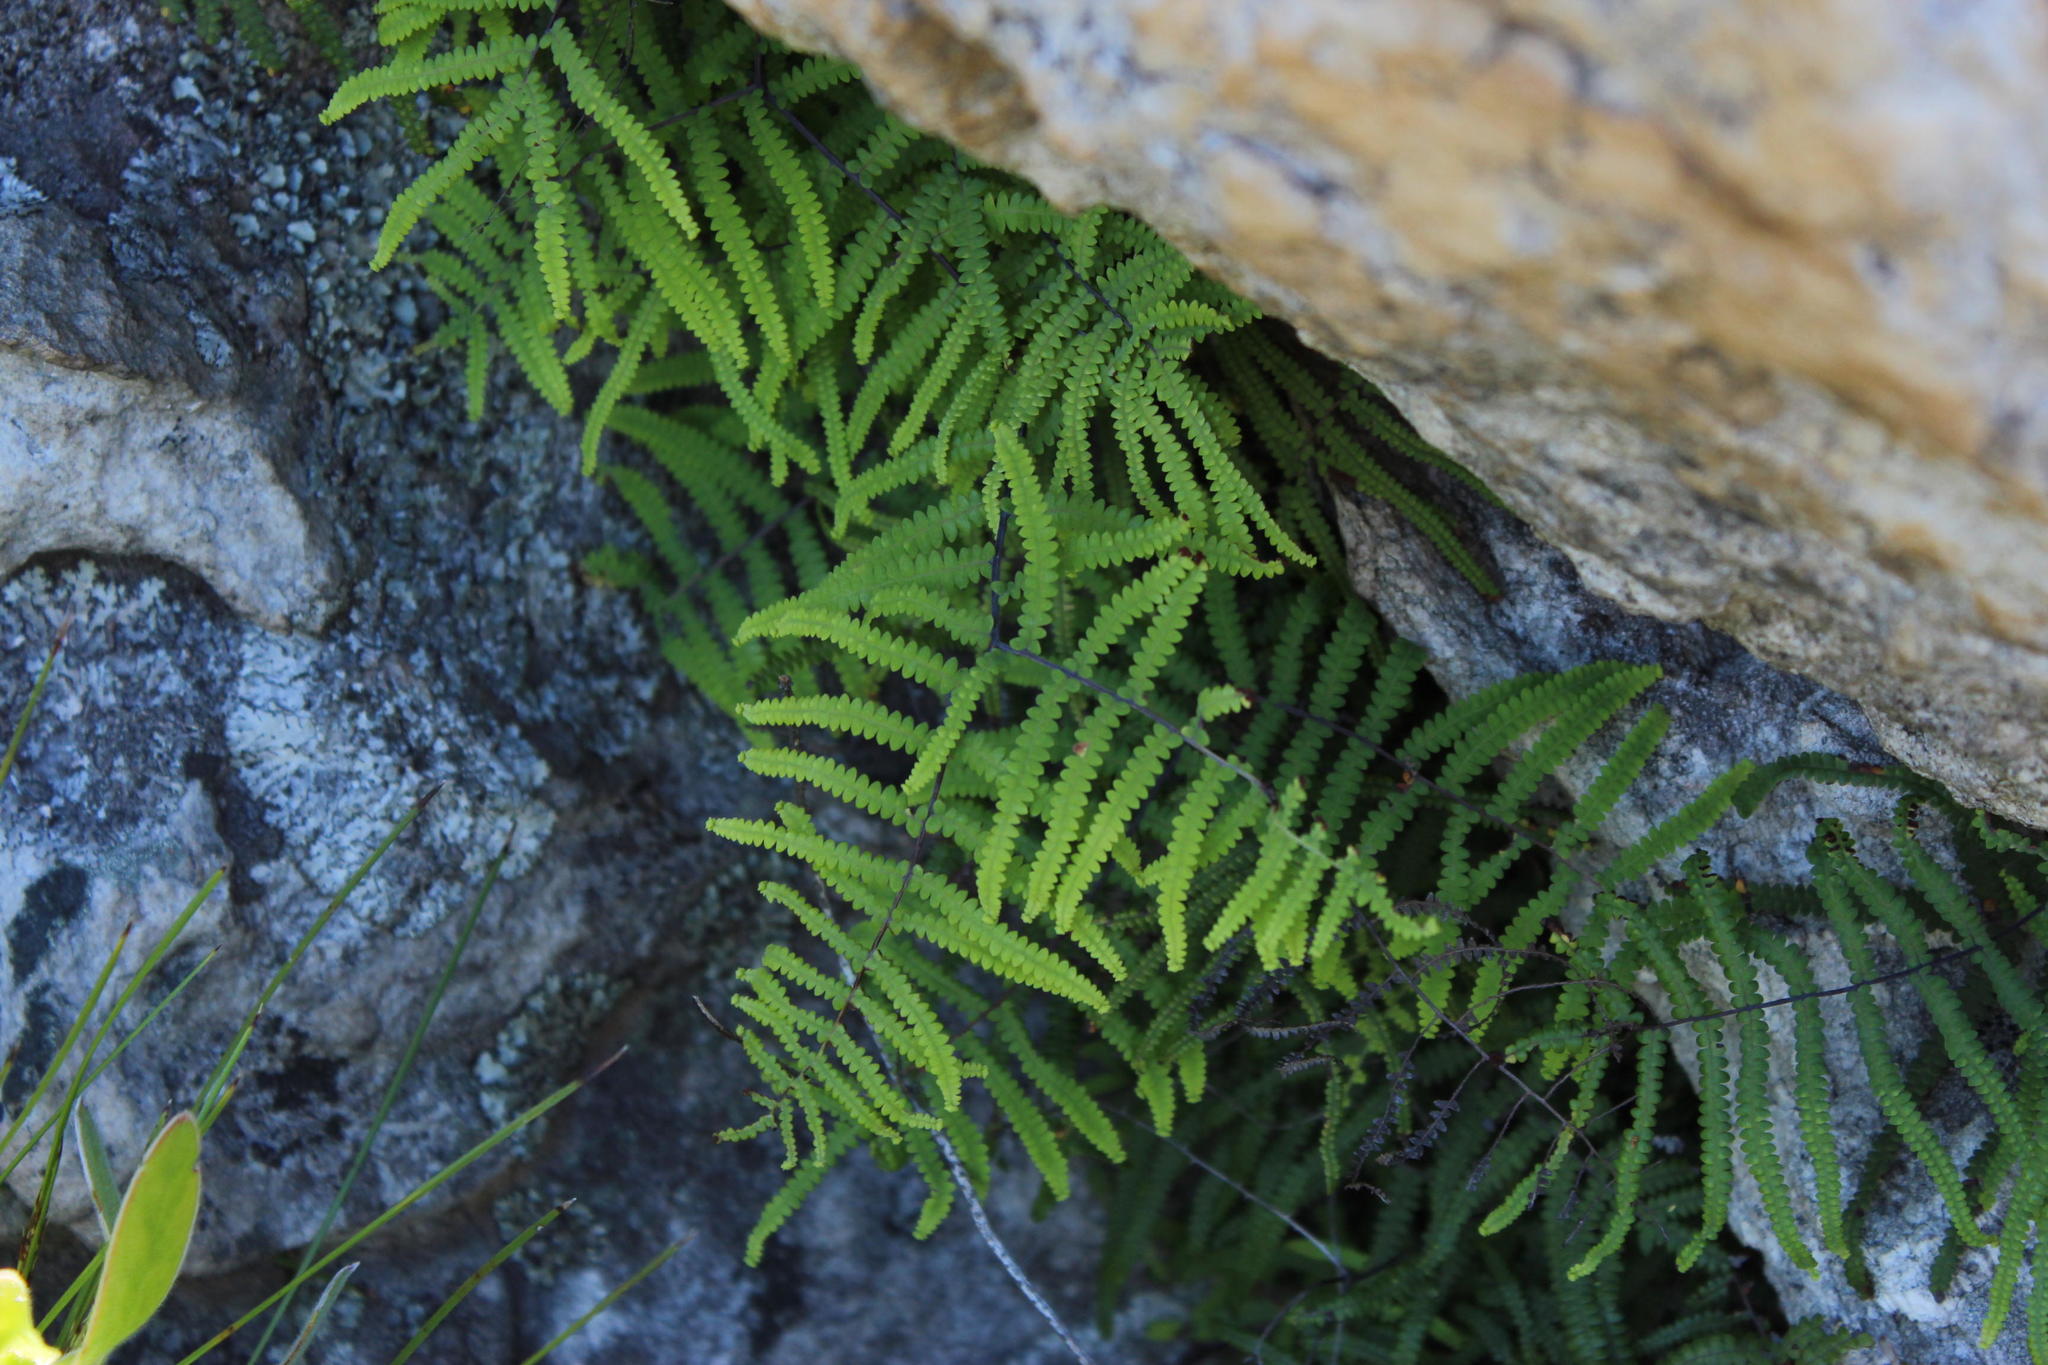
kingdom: Plantae
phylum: Tracheophyta
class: Polypodiopsida
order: Gleicheniales
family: Gleicheniaceae
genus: Gleichenia
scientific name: Gleichenia polypodioides
